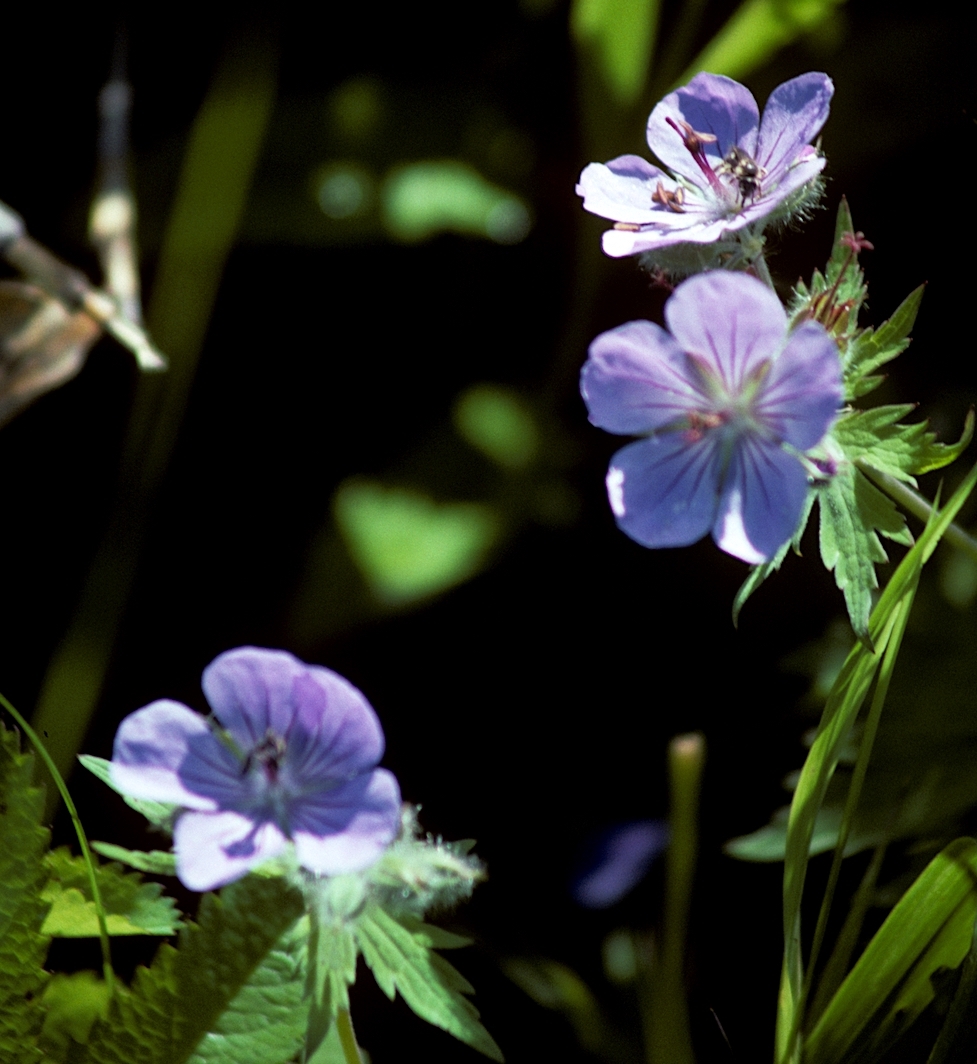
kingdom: Plantae
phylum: Tracheophyta
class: Magnoliopsida
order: Geraniales
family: Geraniaceae
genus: Geranium
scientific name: Geranium erianthum
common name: Northern crane's-bill
